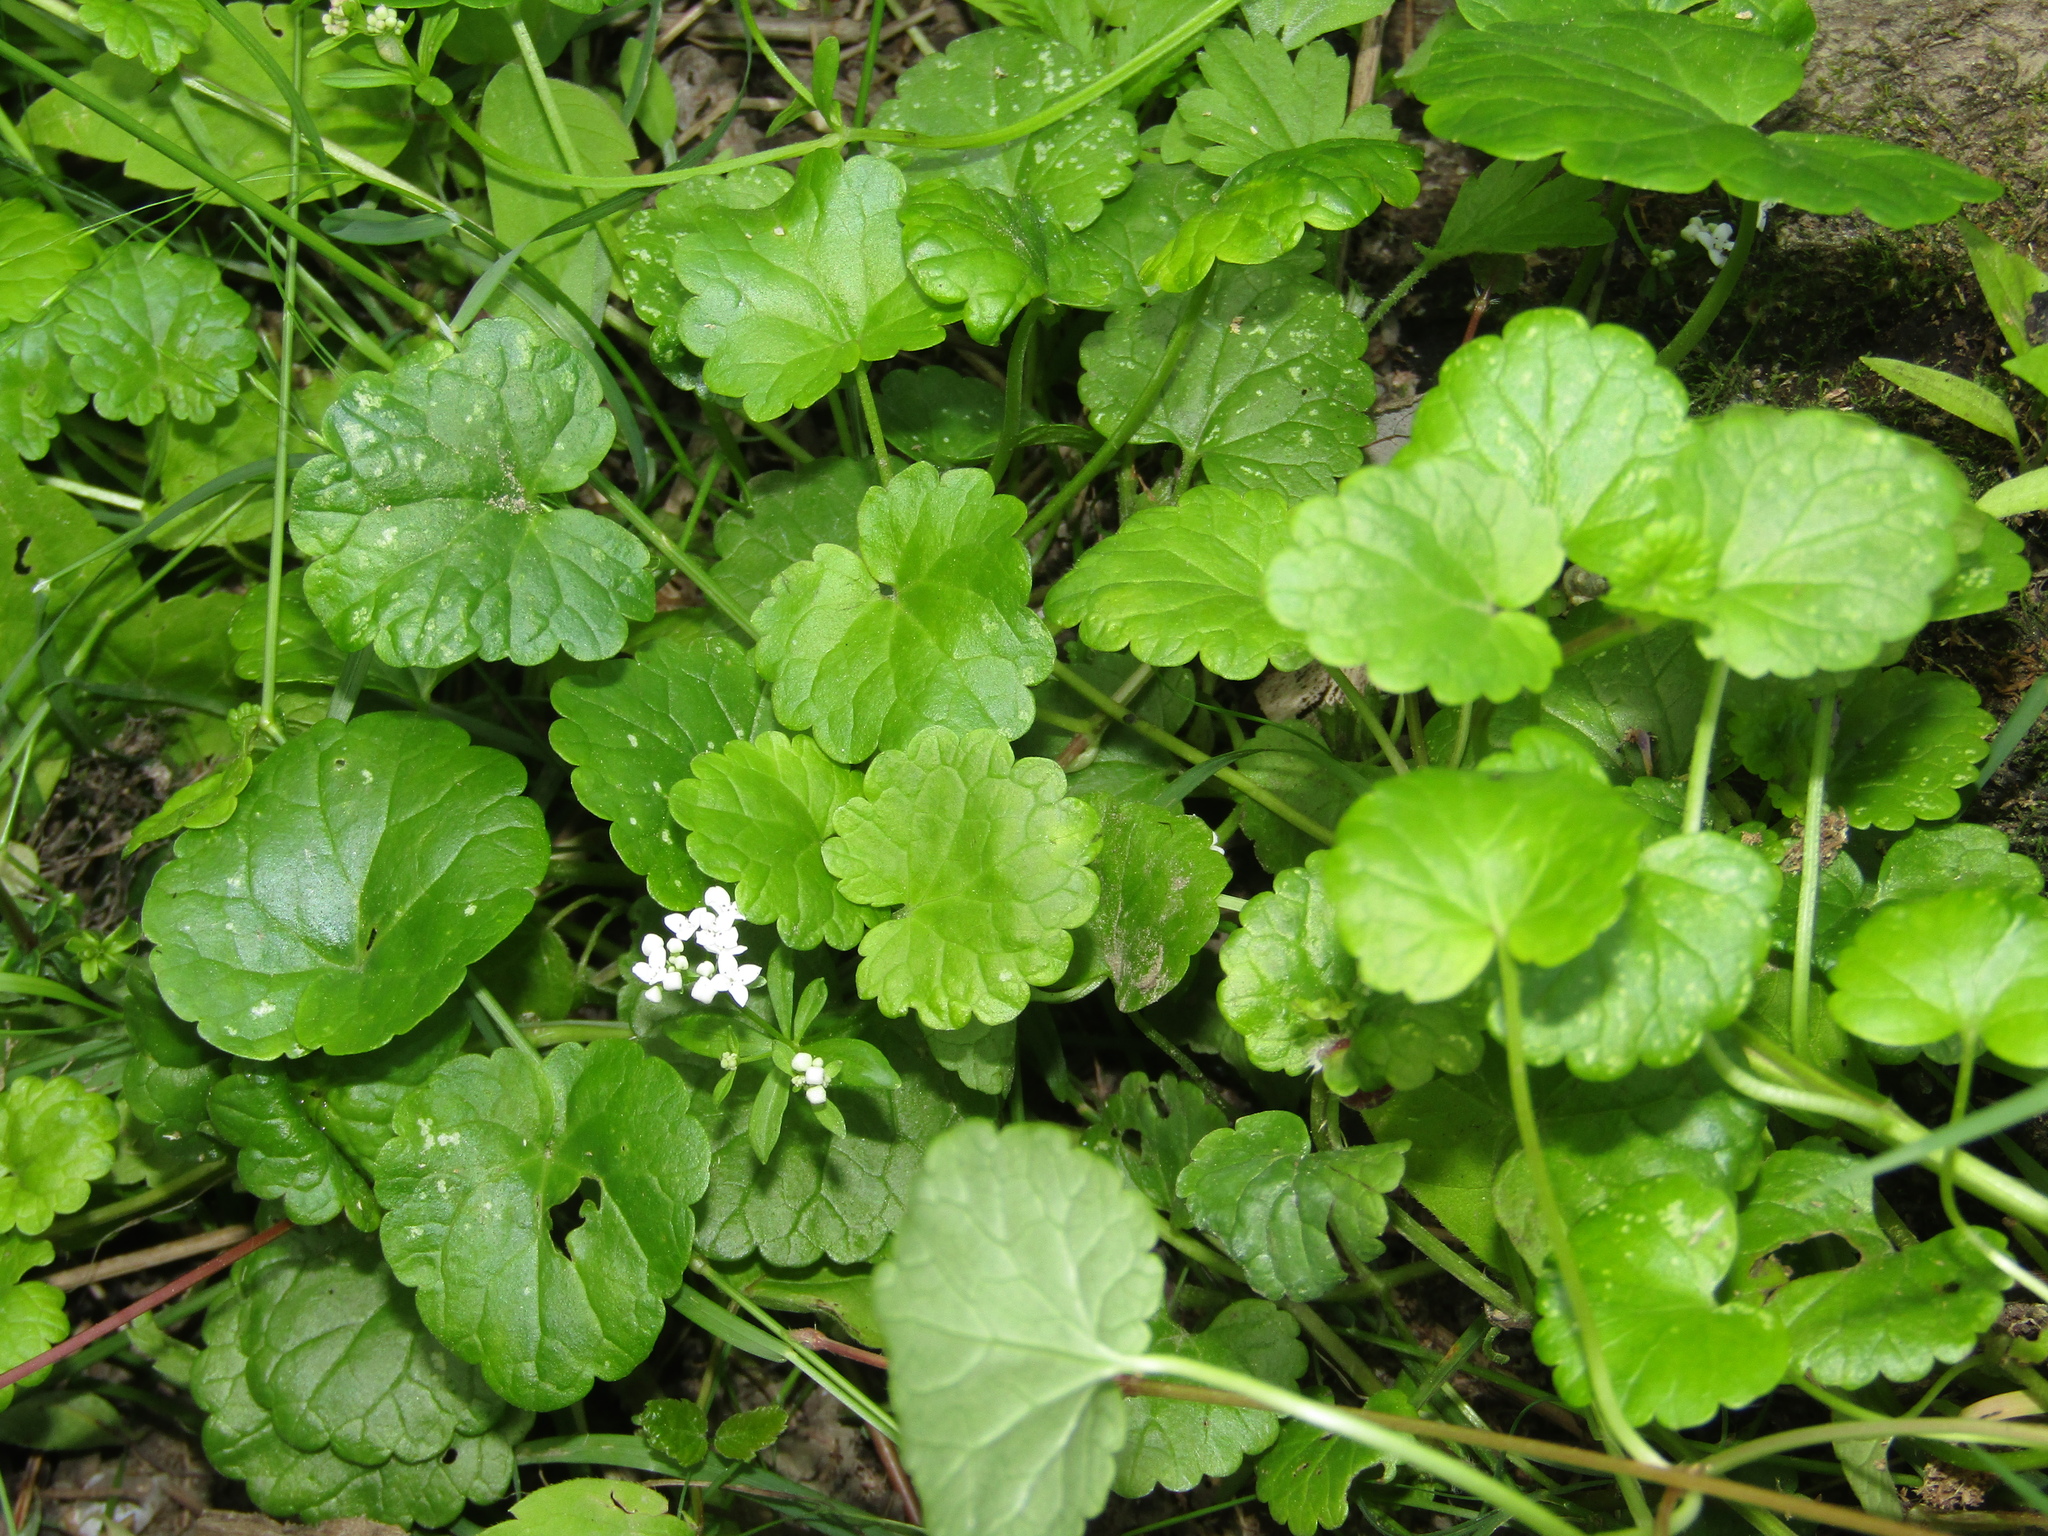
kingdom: Plantae
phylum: Tracheophyta
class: Magnoliopsida
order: Lamiales
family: Lamiaceae
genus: Glechoma
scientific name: Glechoma hederacea
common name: Ground ivy
